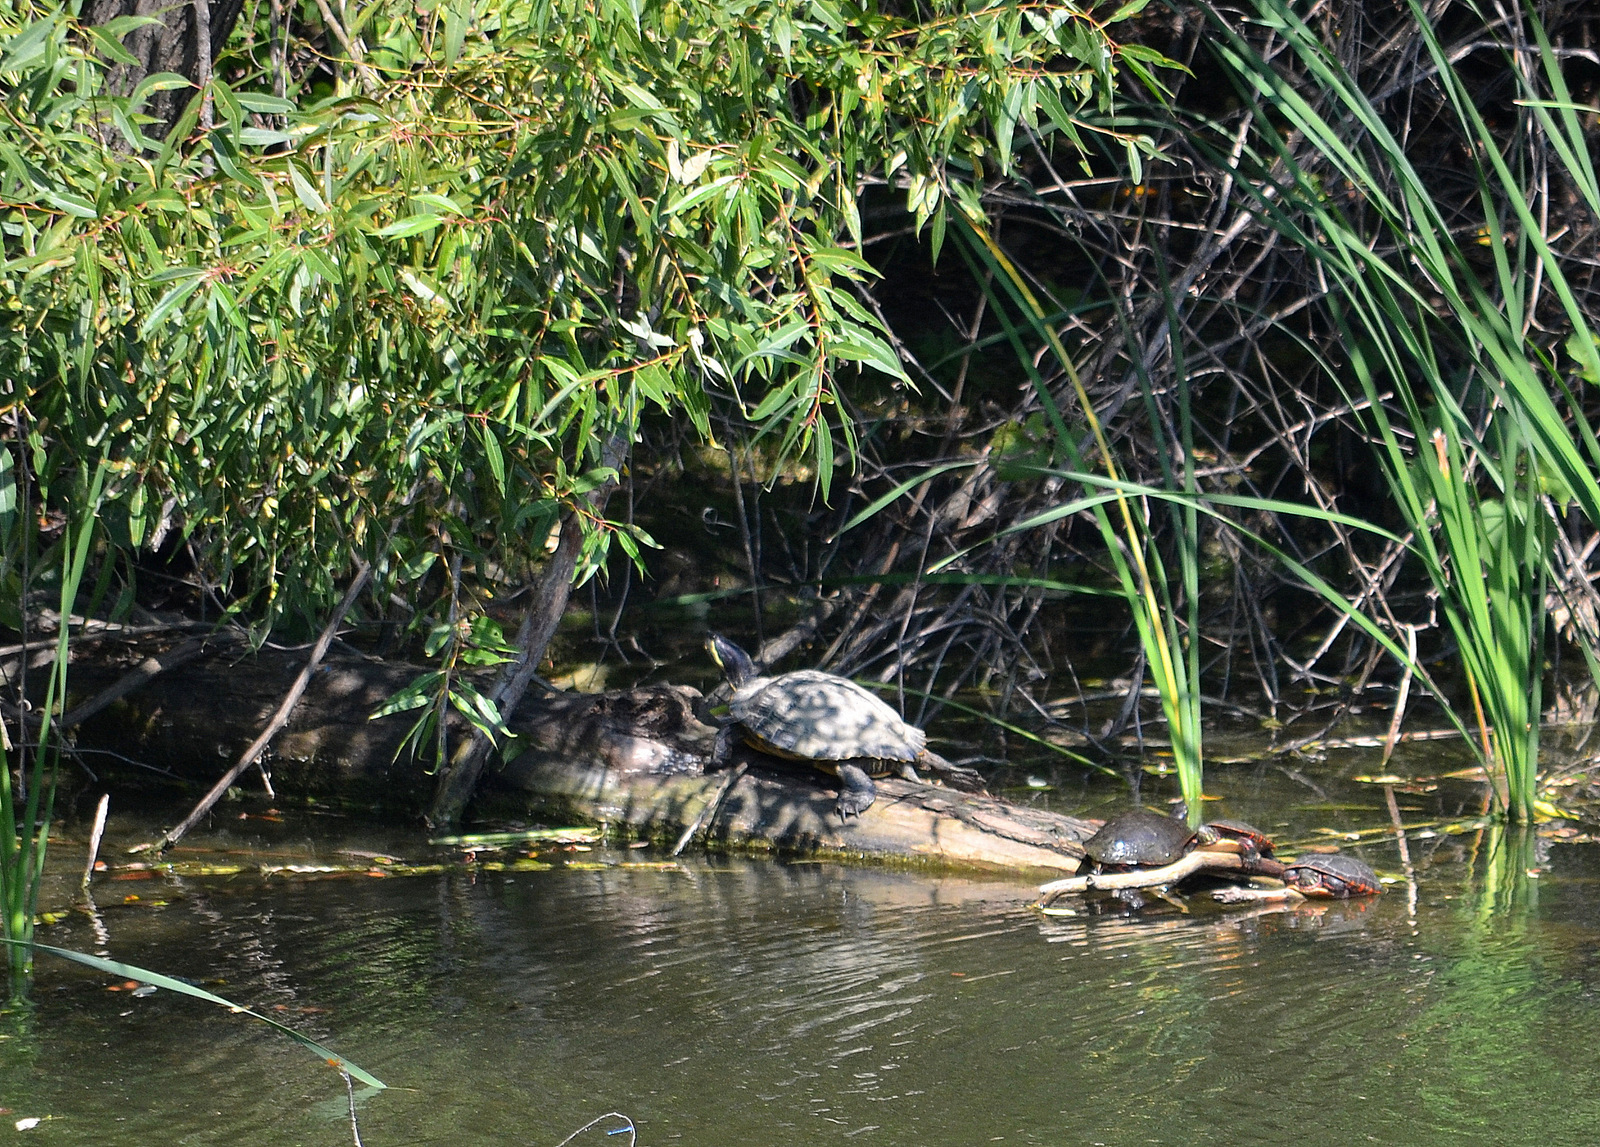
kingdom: Animalia
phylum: Chordata
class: Testudines
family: Emydidae
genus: Trachemys
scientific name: Trachemys scripta
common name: Slider
